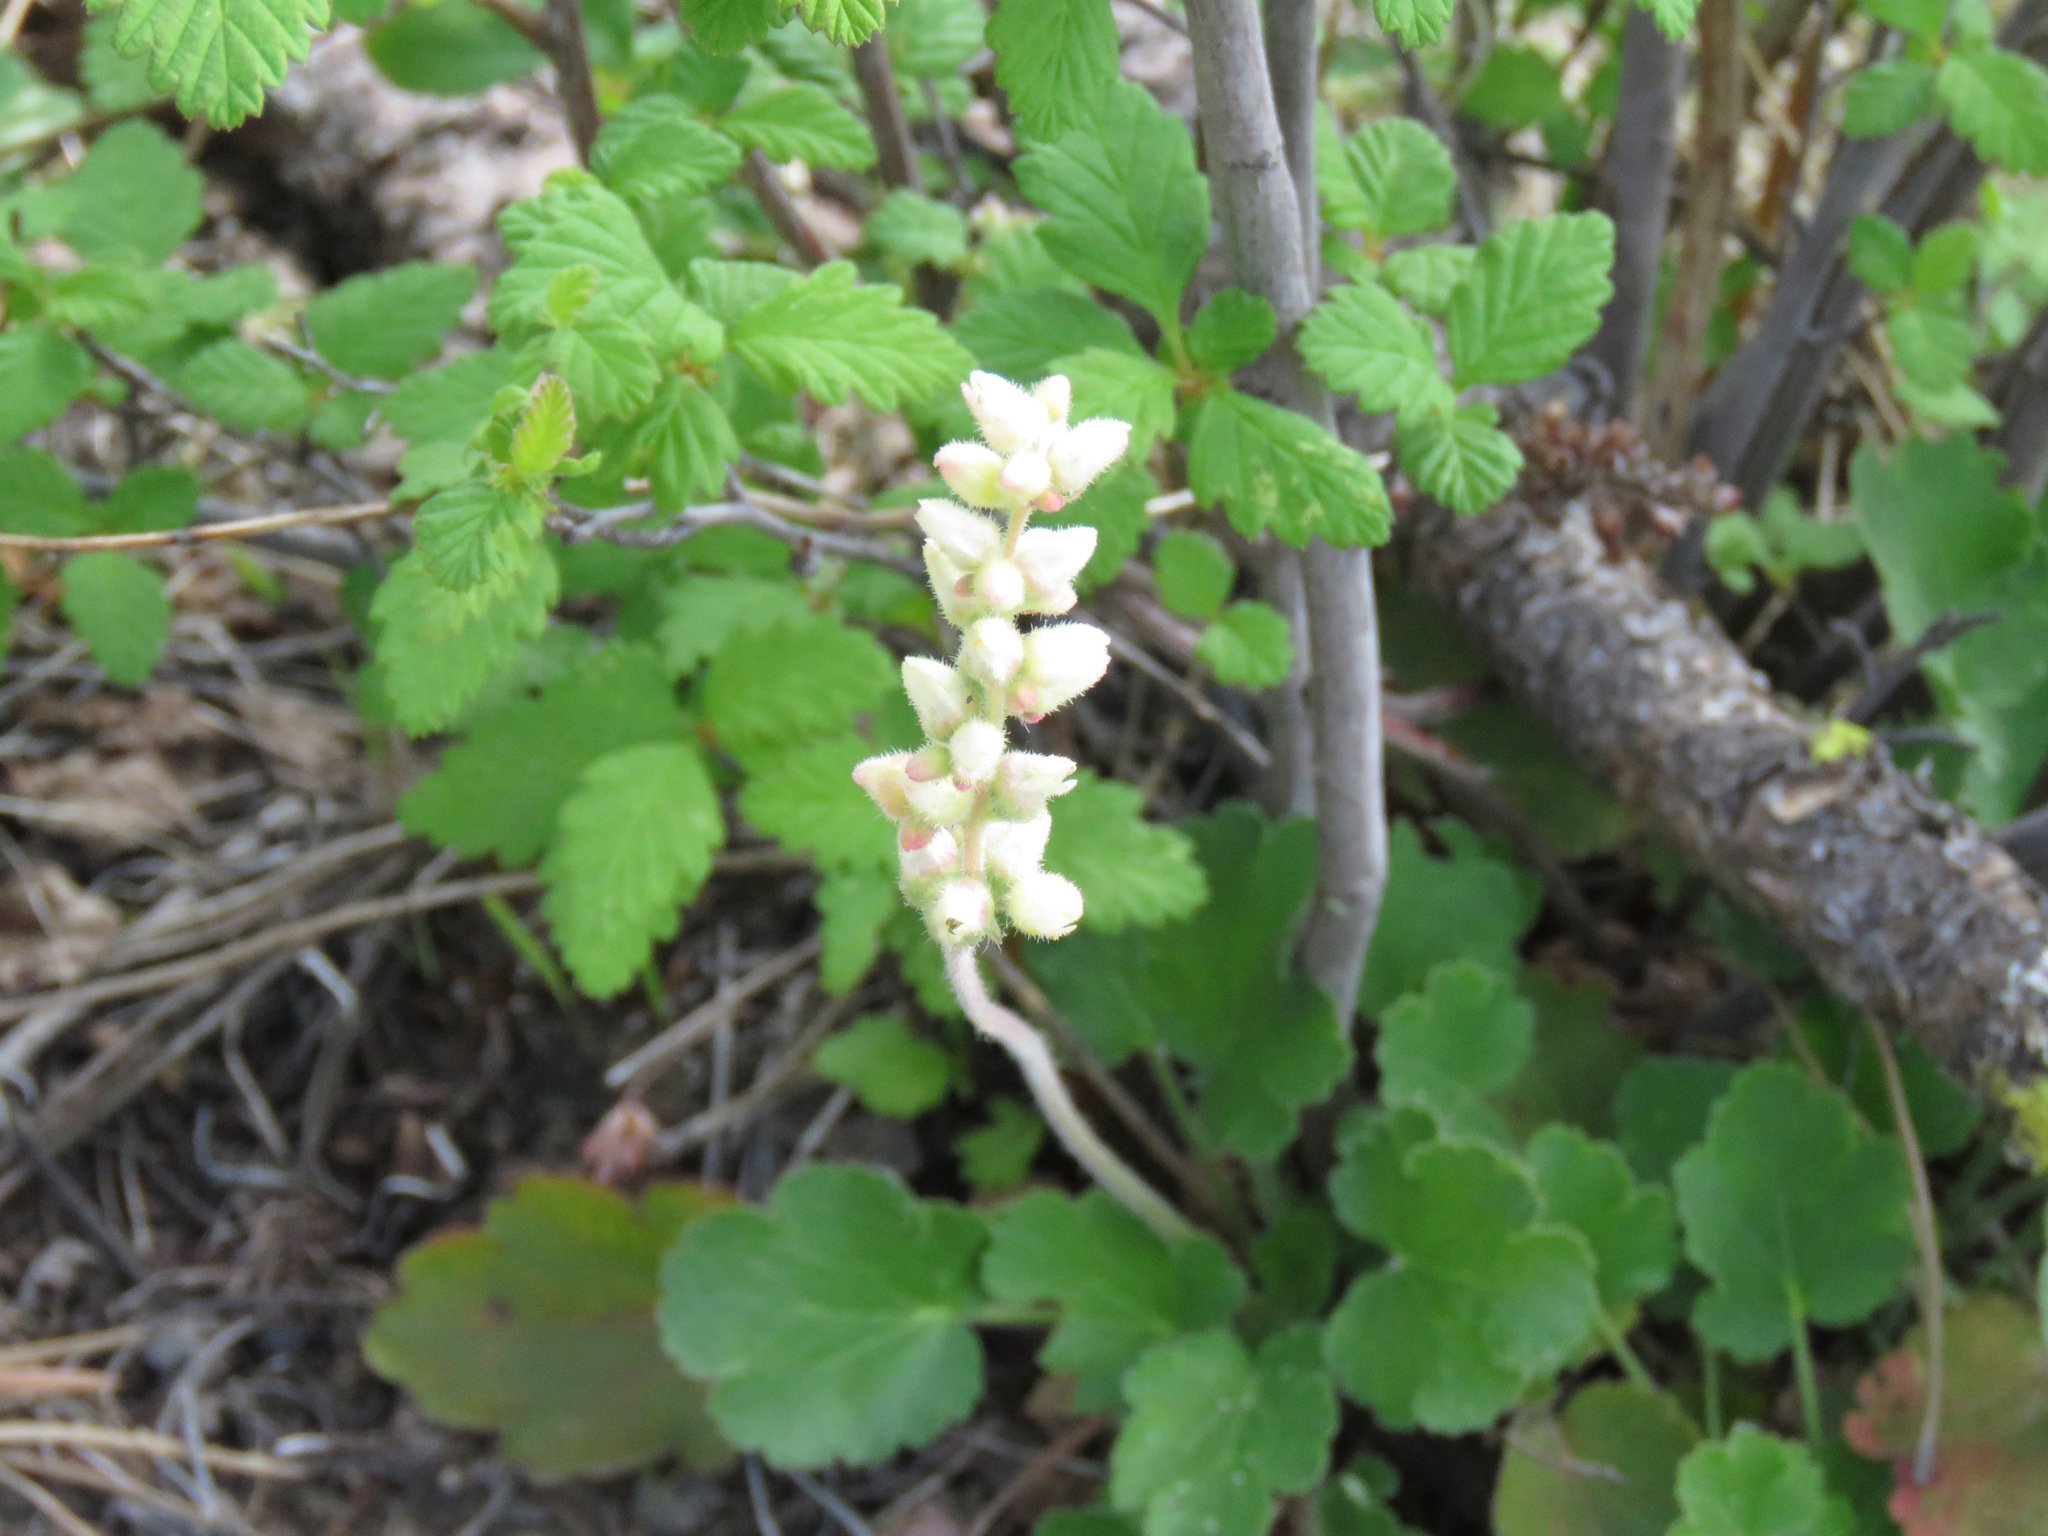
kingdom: Plantae
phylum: Tracheophyta
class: Magnoliopsida
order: Saxifragales
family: Saxifragaceae
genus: Heuchera
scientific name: Heuchera cylindrica
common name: Mat alumroot
